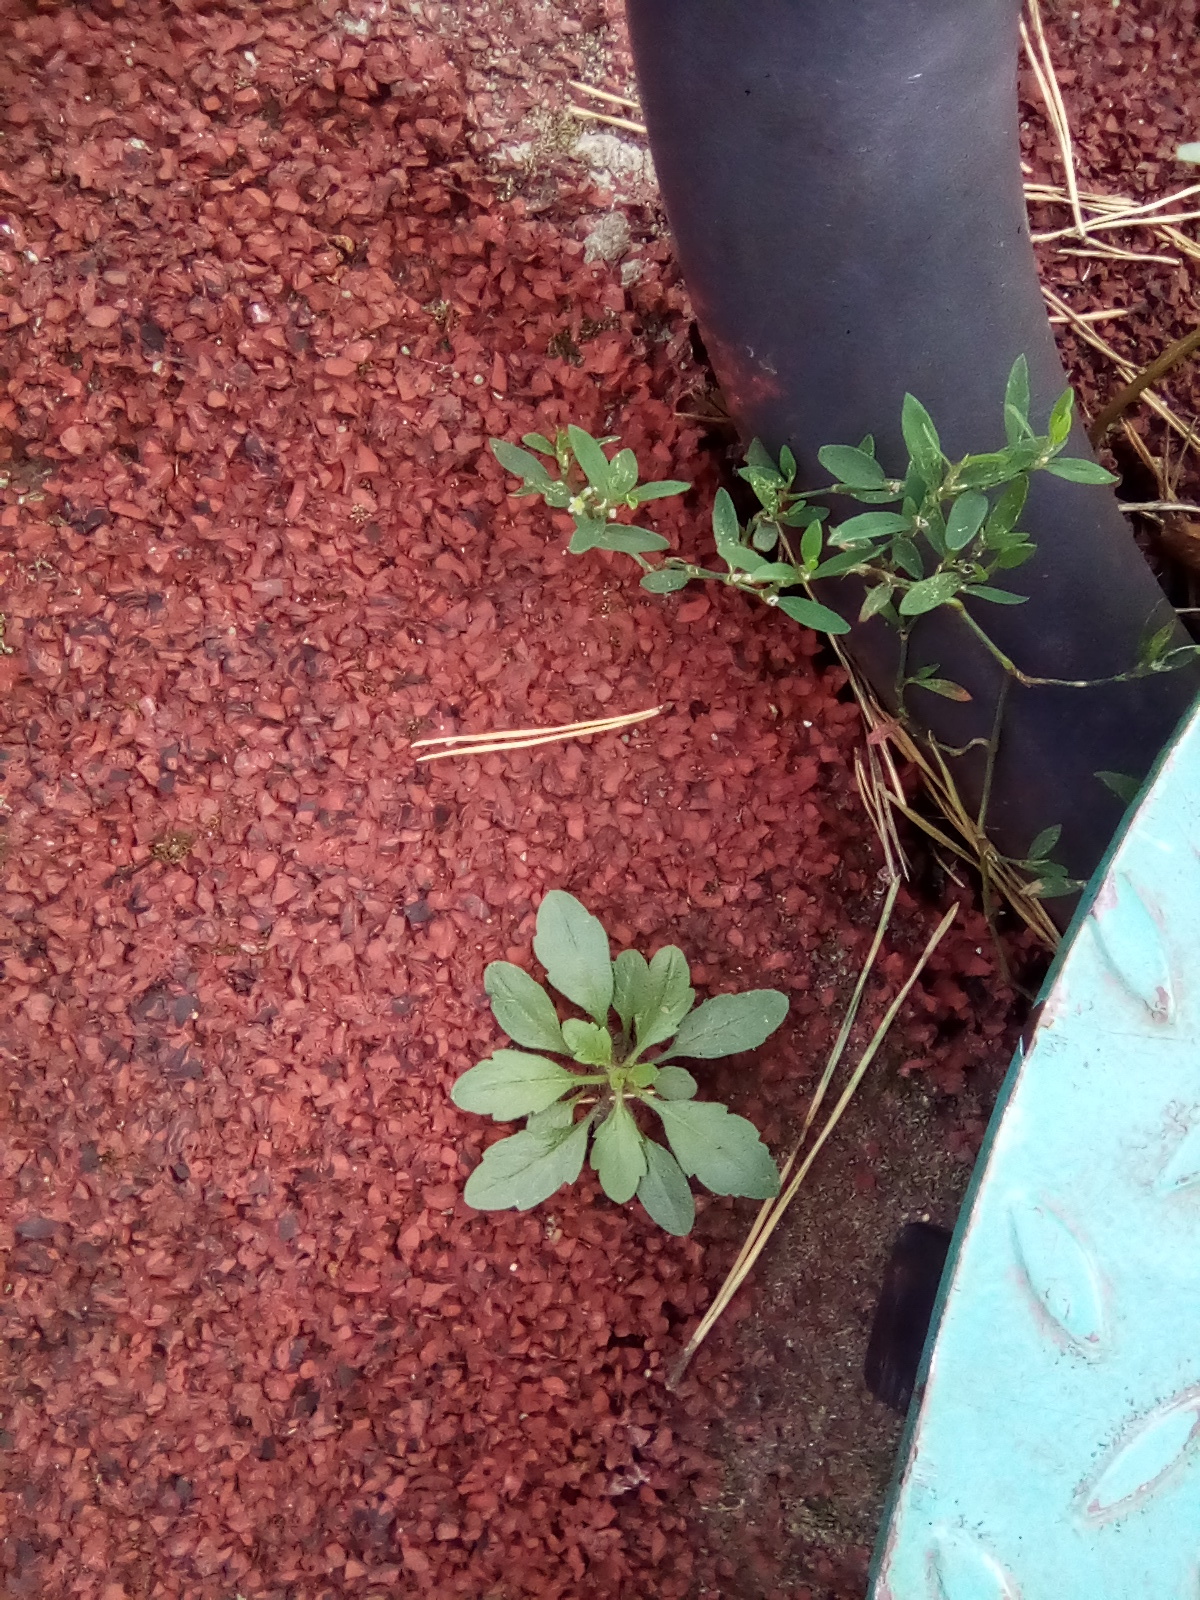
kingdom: Plantae
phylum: Tracheophyta
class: Magnoliopsida
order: Asterales
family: Asteraceae
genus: Erigeron
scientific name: Erigeron canadensis
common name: Canadian fleabane
